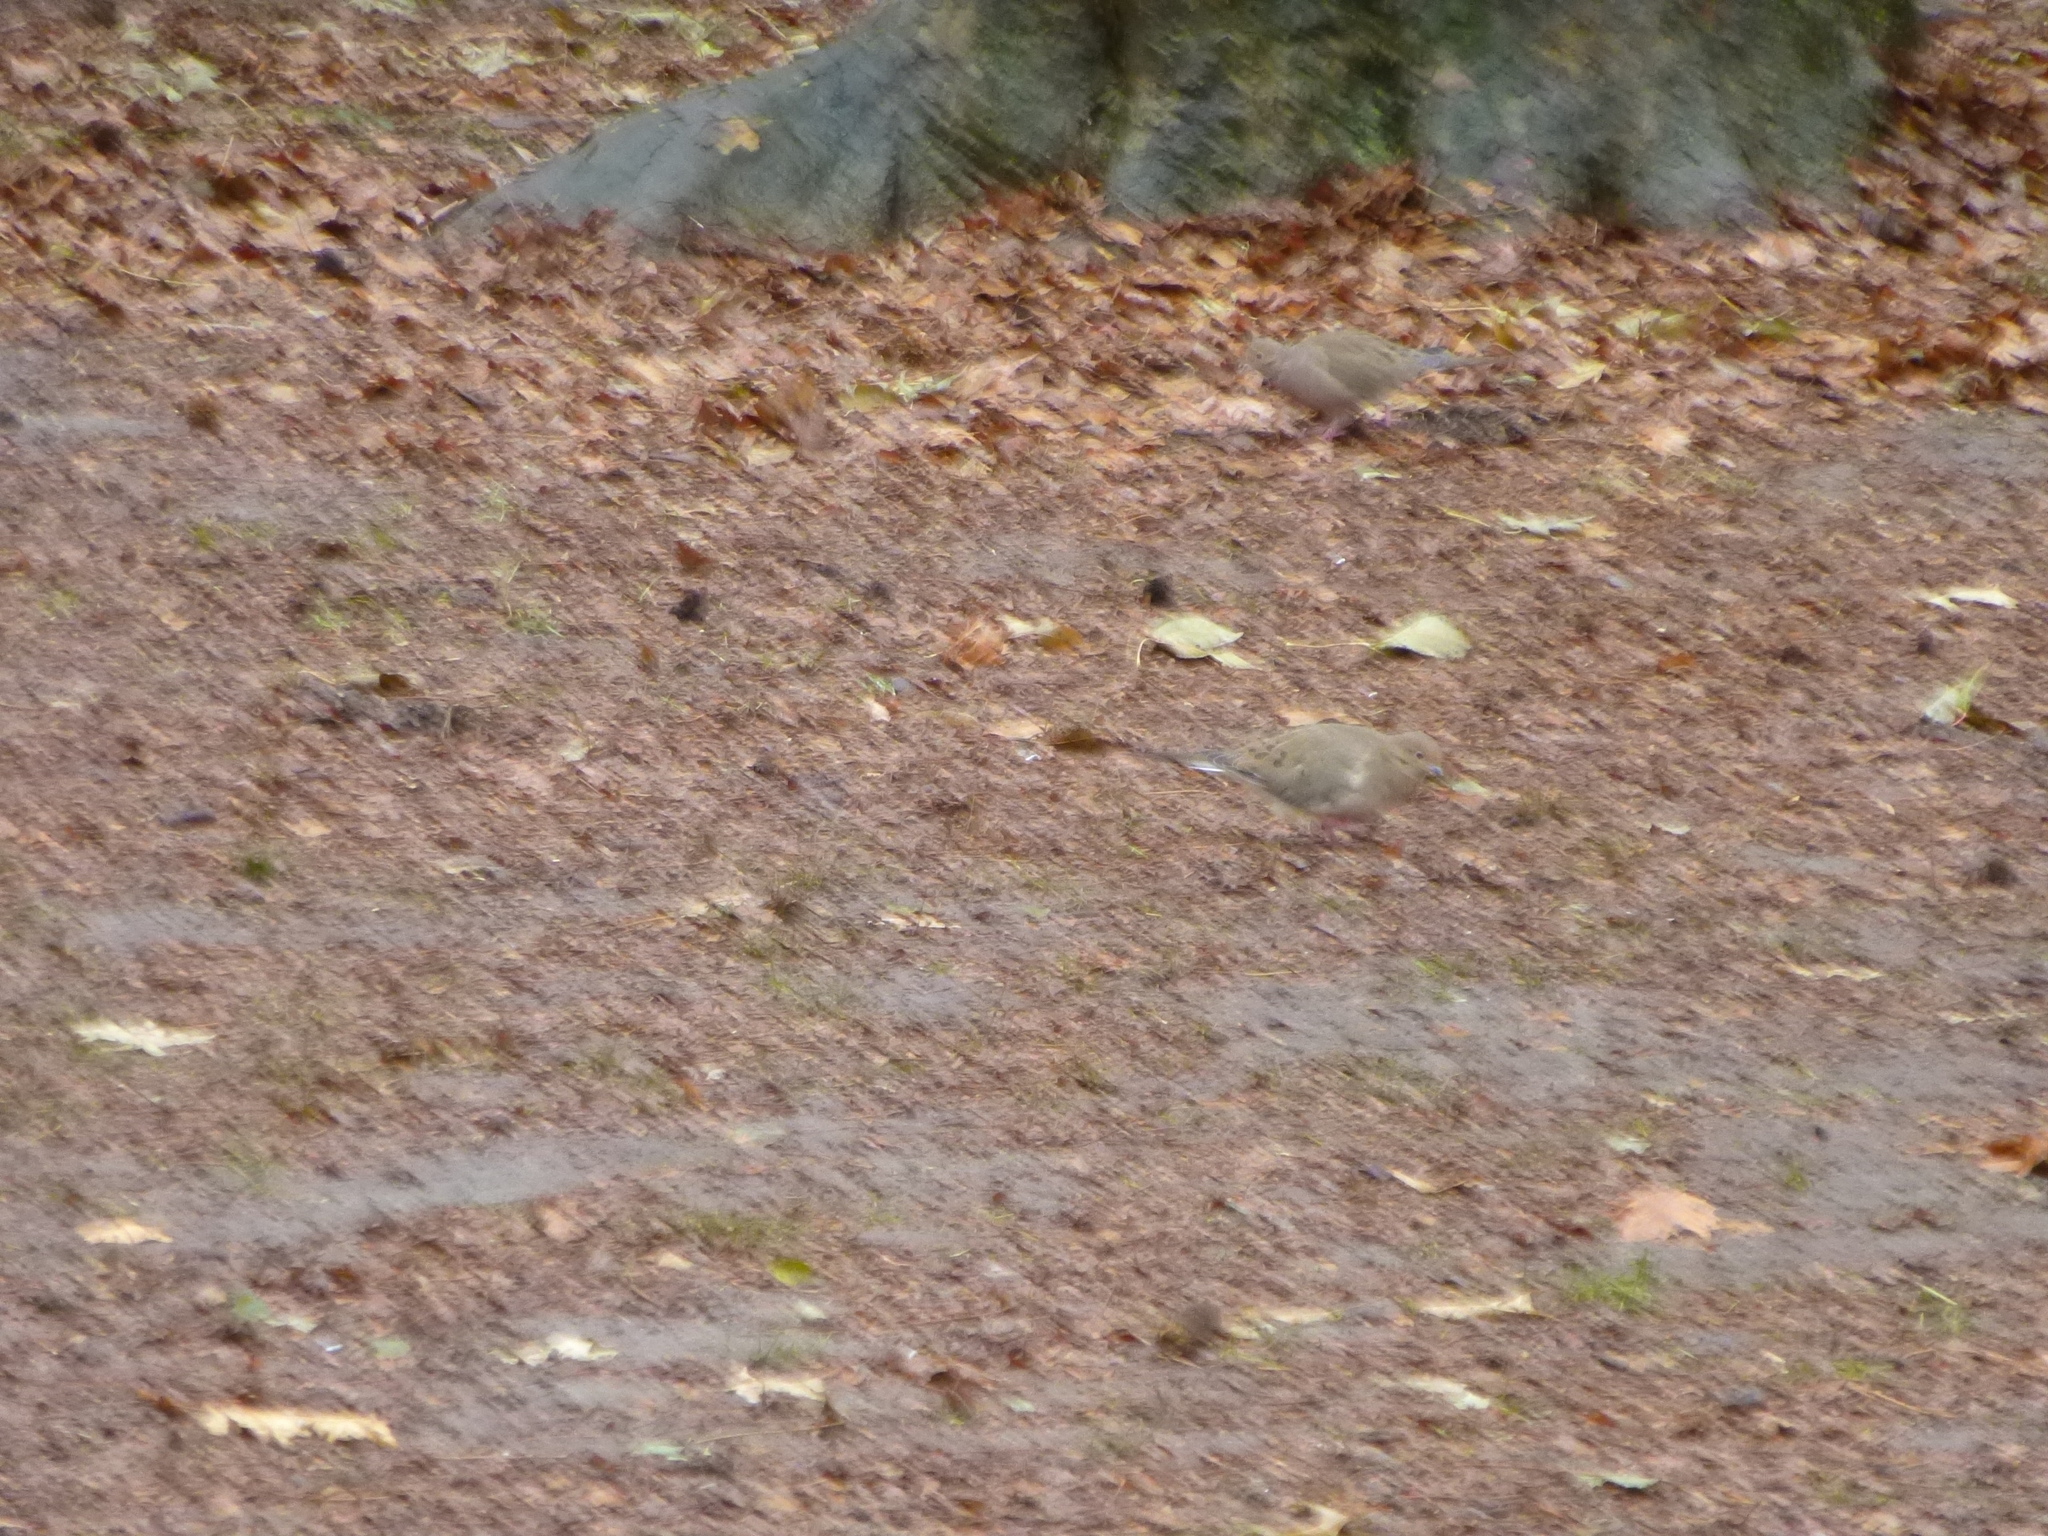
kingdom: Animalia
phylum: Chordata
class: Aves
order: Columbiformes
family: Columbidae
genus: Zenaida
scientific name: Zenaida macroura
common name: Mourning dove
